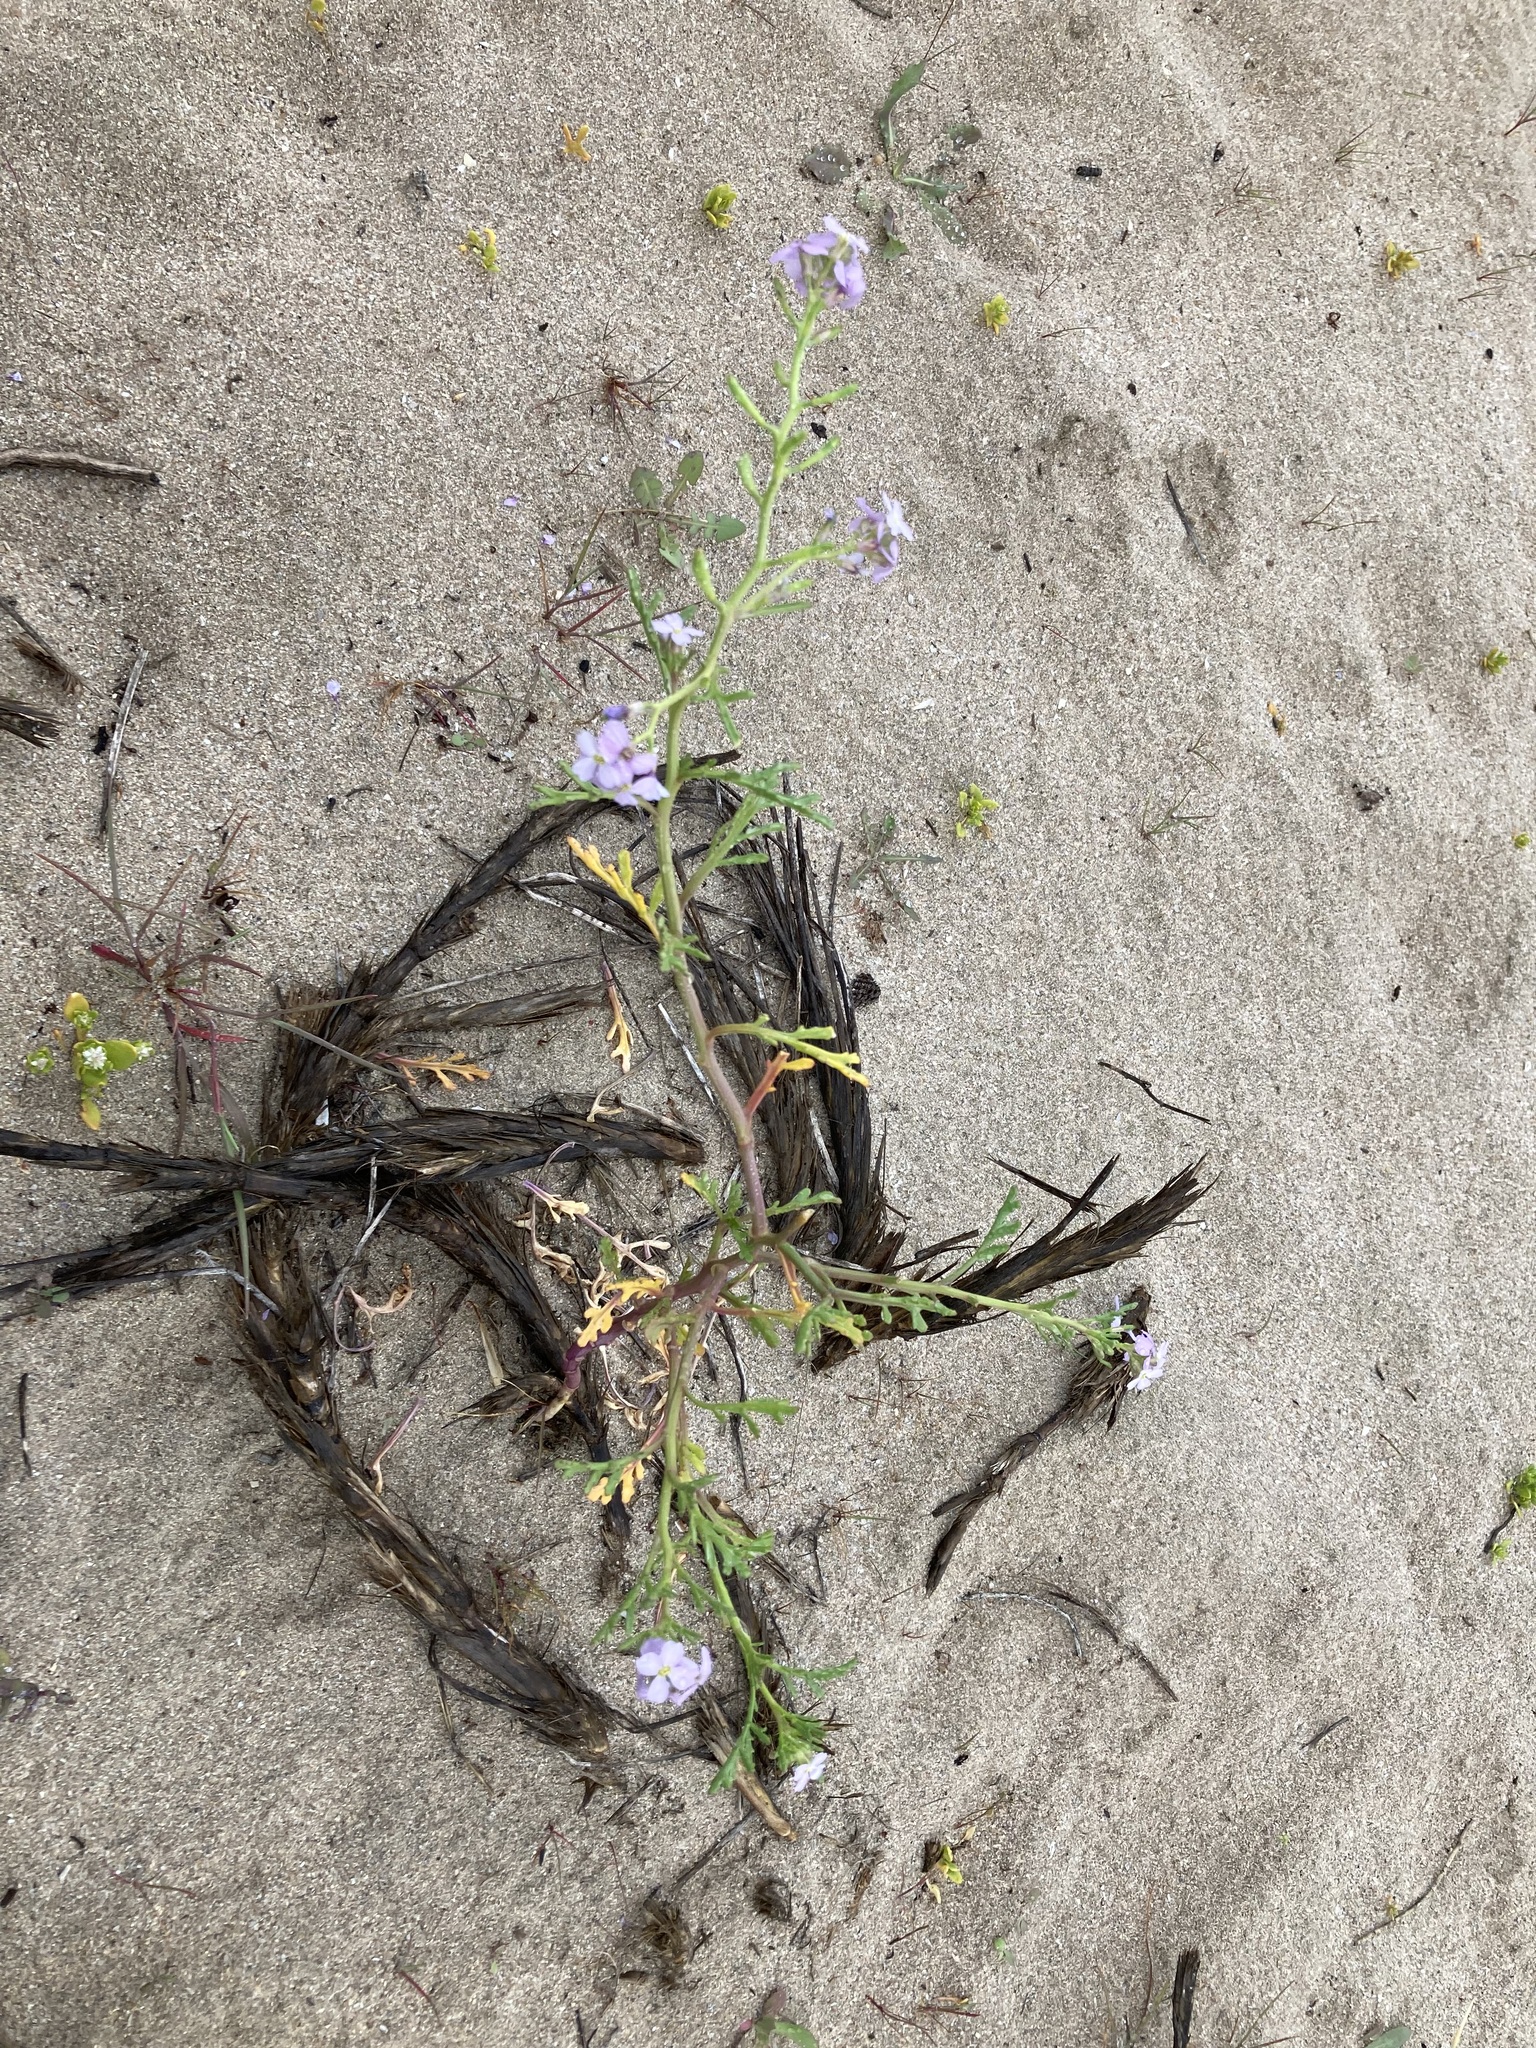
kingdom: Plantae
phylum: Tracheophyta
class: Magnoliopsida
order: Brassicales
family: Brassicaceae
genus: Cakile
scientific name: Cakile maritima
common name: Sea rocket
